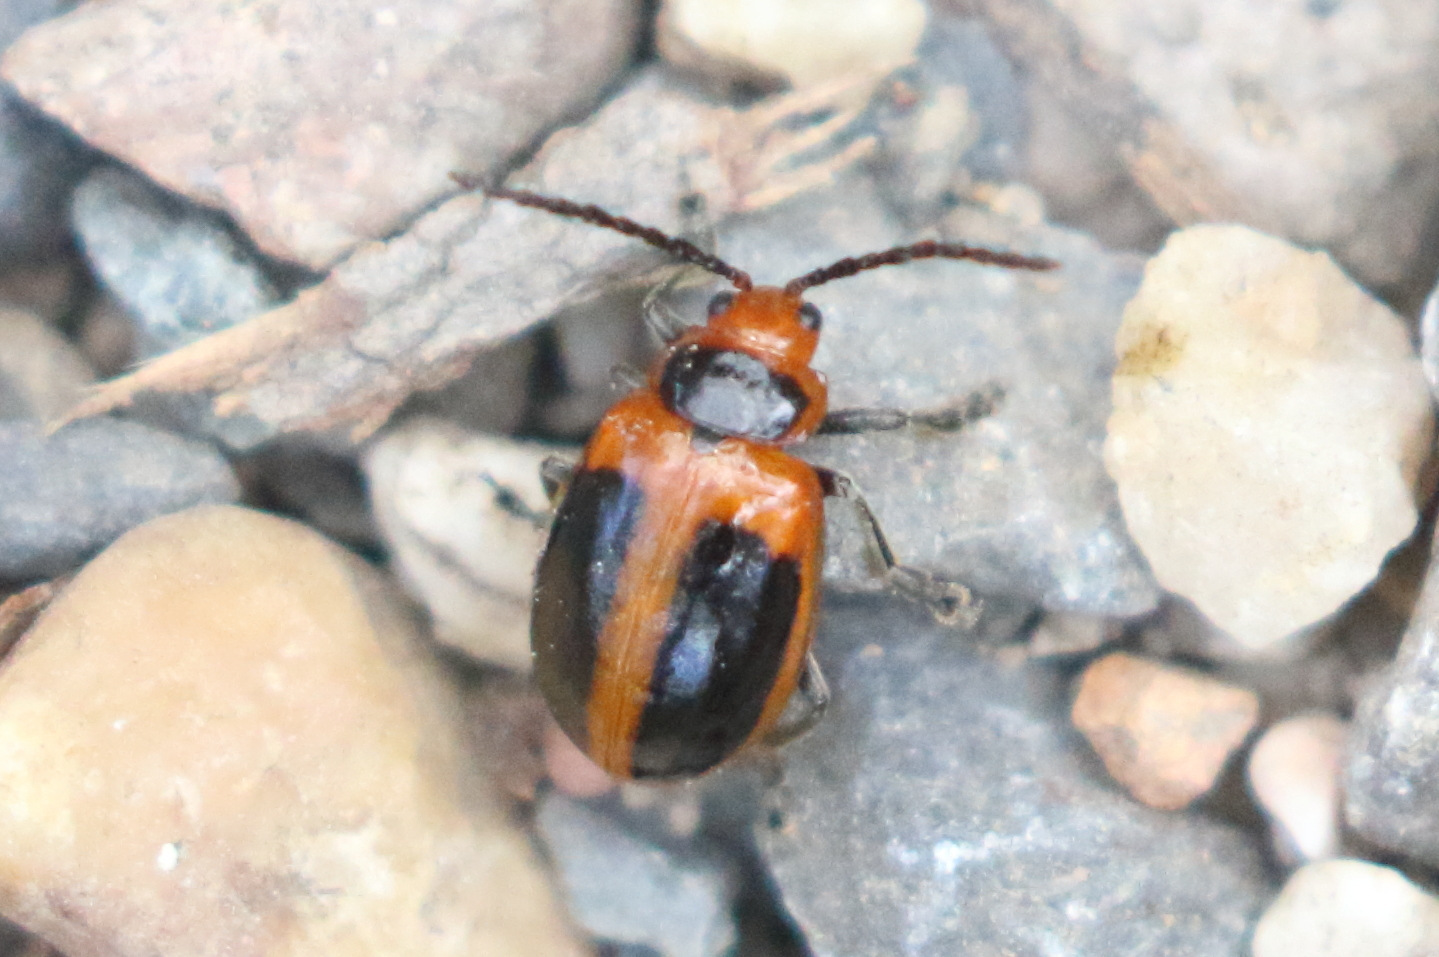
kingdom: Animalia
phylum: Arthropoda
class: Insecta
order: Coleoptera
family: Chrysomelidae
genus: Oides
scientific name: Oides
